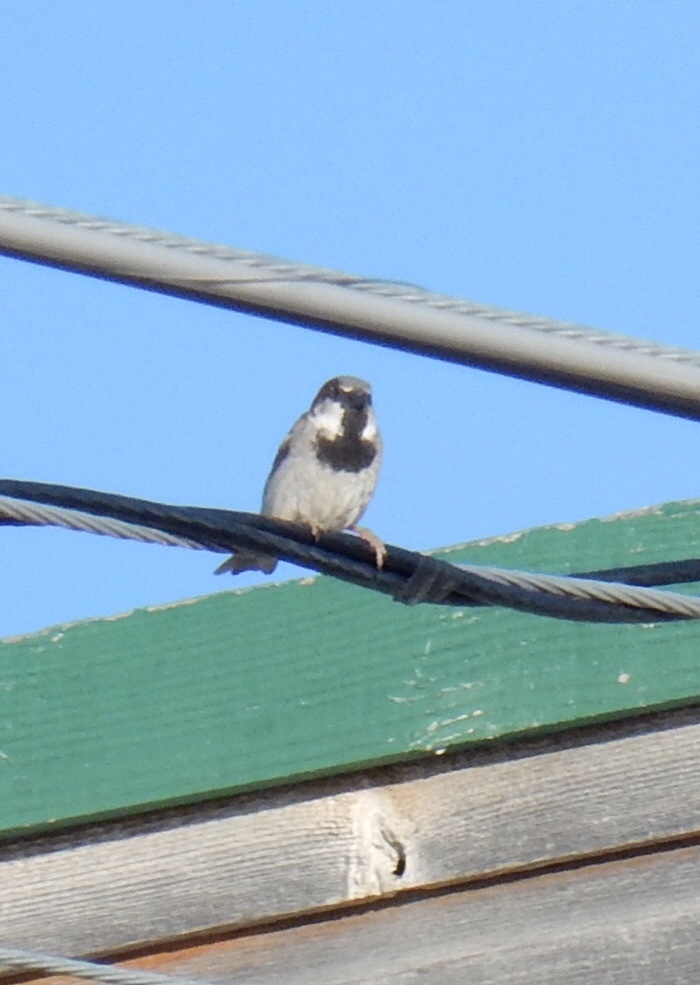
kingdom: Animalia
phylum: Chordata
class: Aves
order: Passeriformes
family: Passeridae
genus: Passer
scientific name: Passer domesticus
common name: House sparrow
